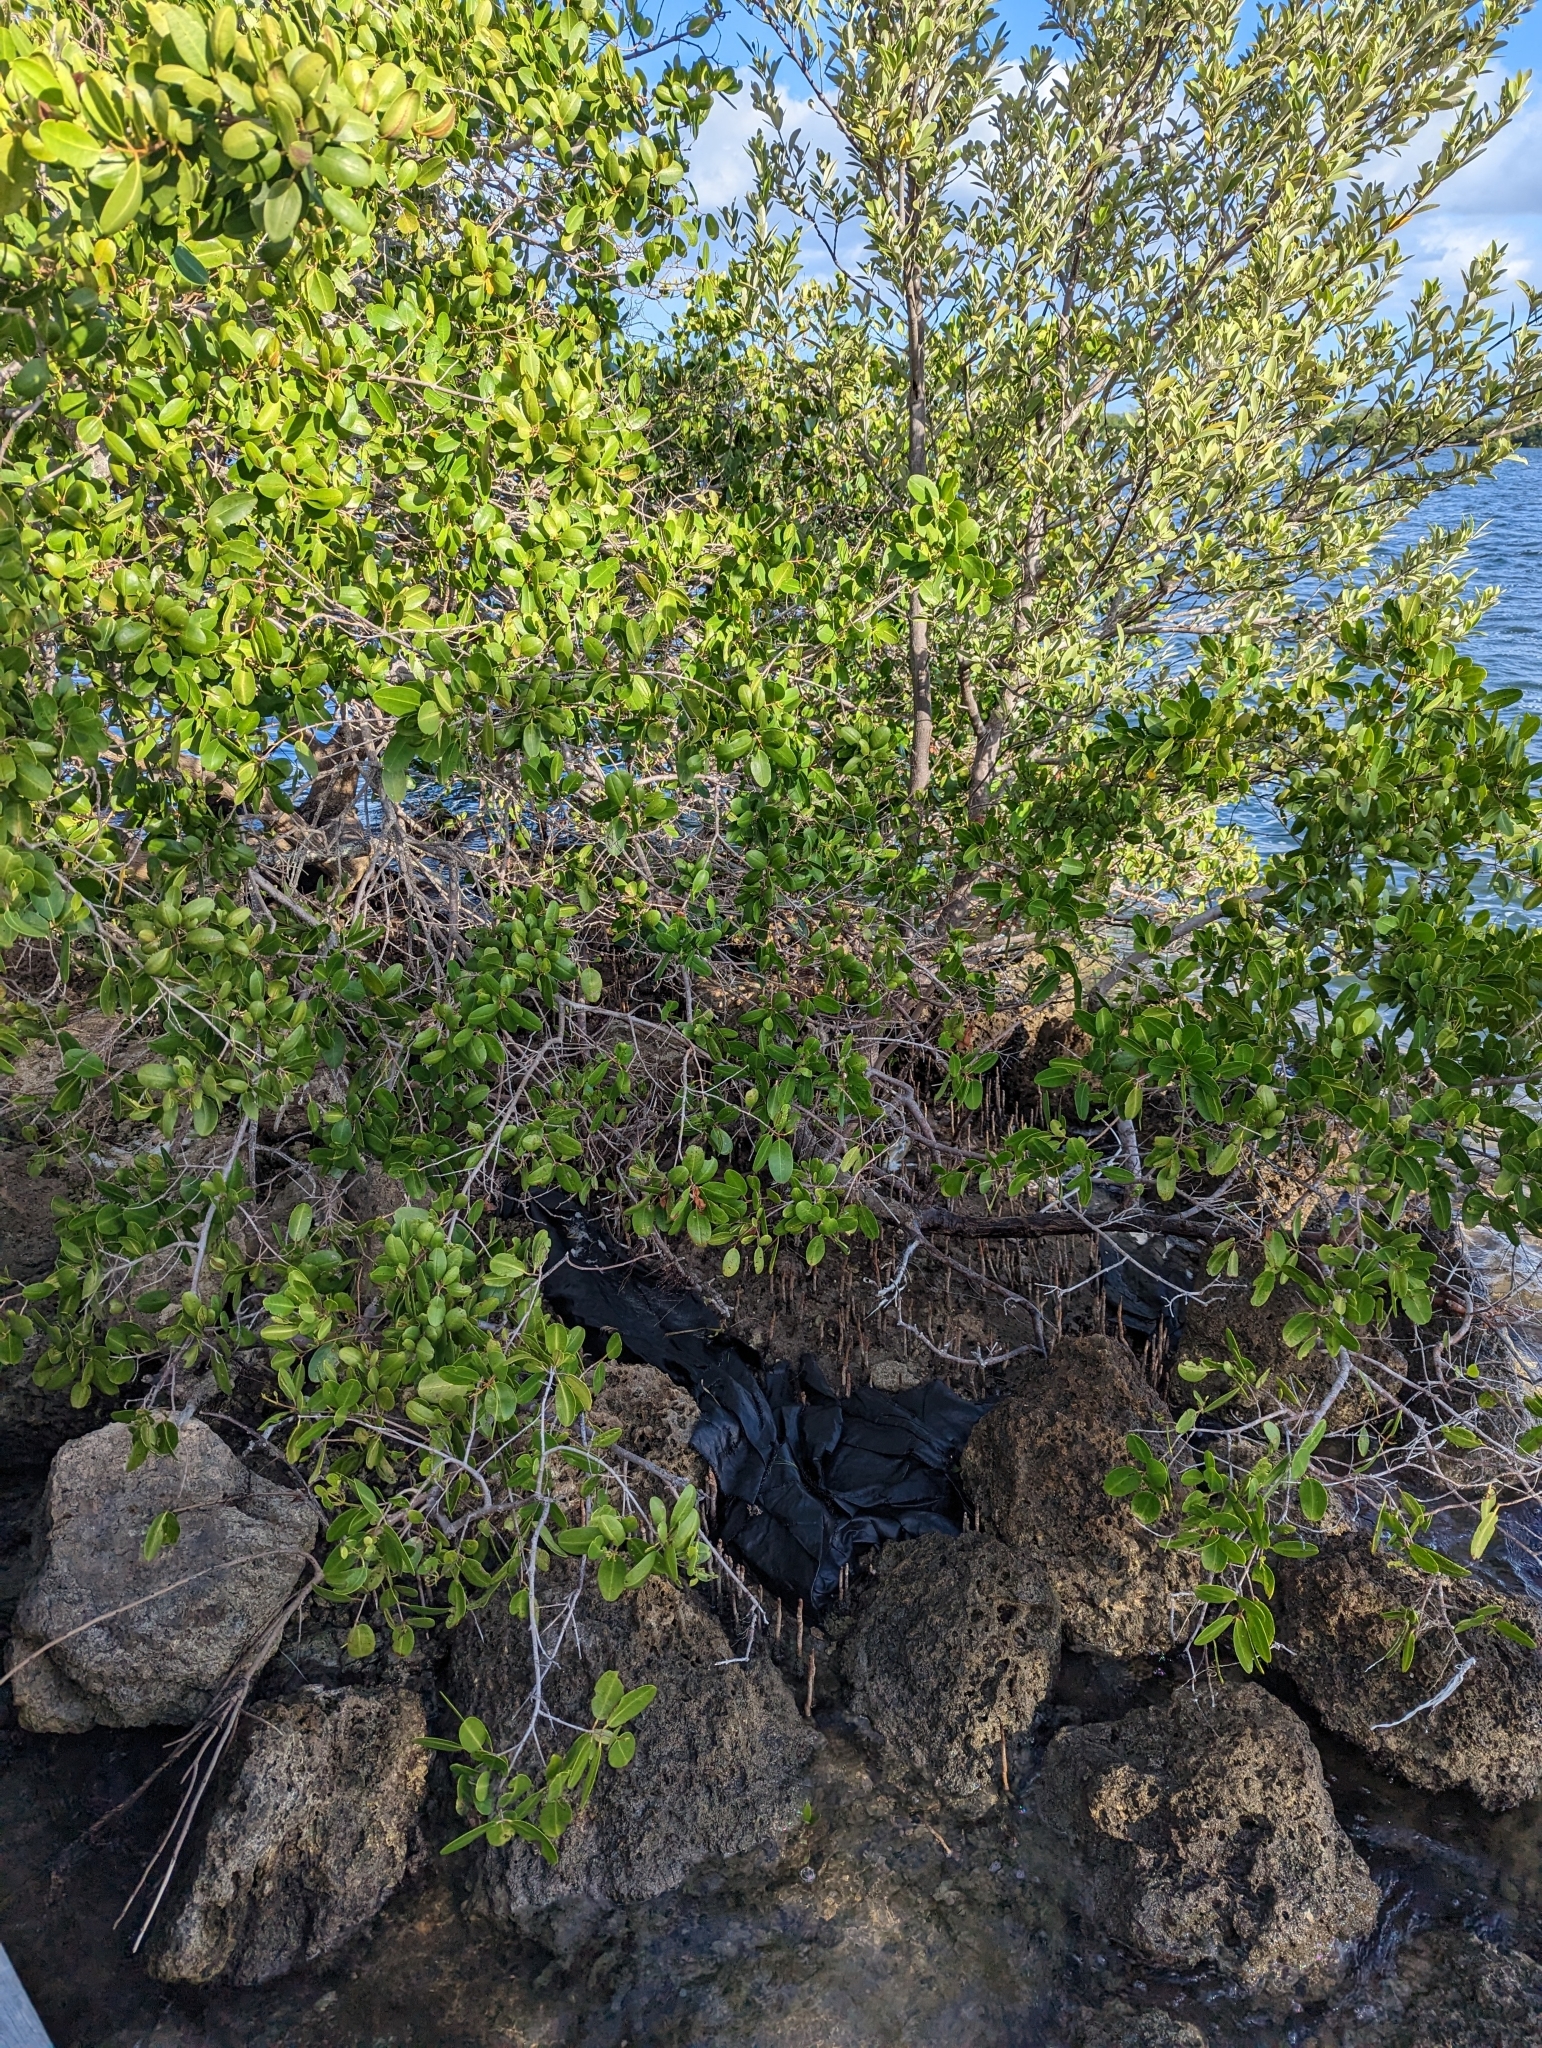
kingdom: Plantae
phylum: Tracheophyta
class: Magnoliopsida
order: Myrtales
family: Combretaceae
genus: Laguncularia
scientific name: Laguncularia racemosa
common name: White mangrove
